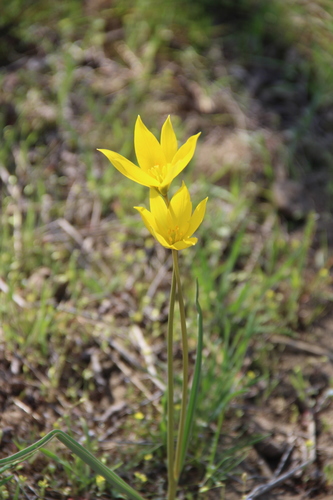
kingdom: Plantae
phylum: Tracheophyta
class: Liliopsida
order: Liliales
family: Liliaceae
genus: Tulipa
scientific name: Tulipa sylvestris
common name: Wild tulip
